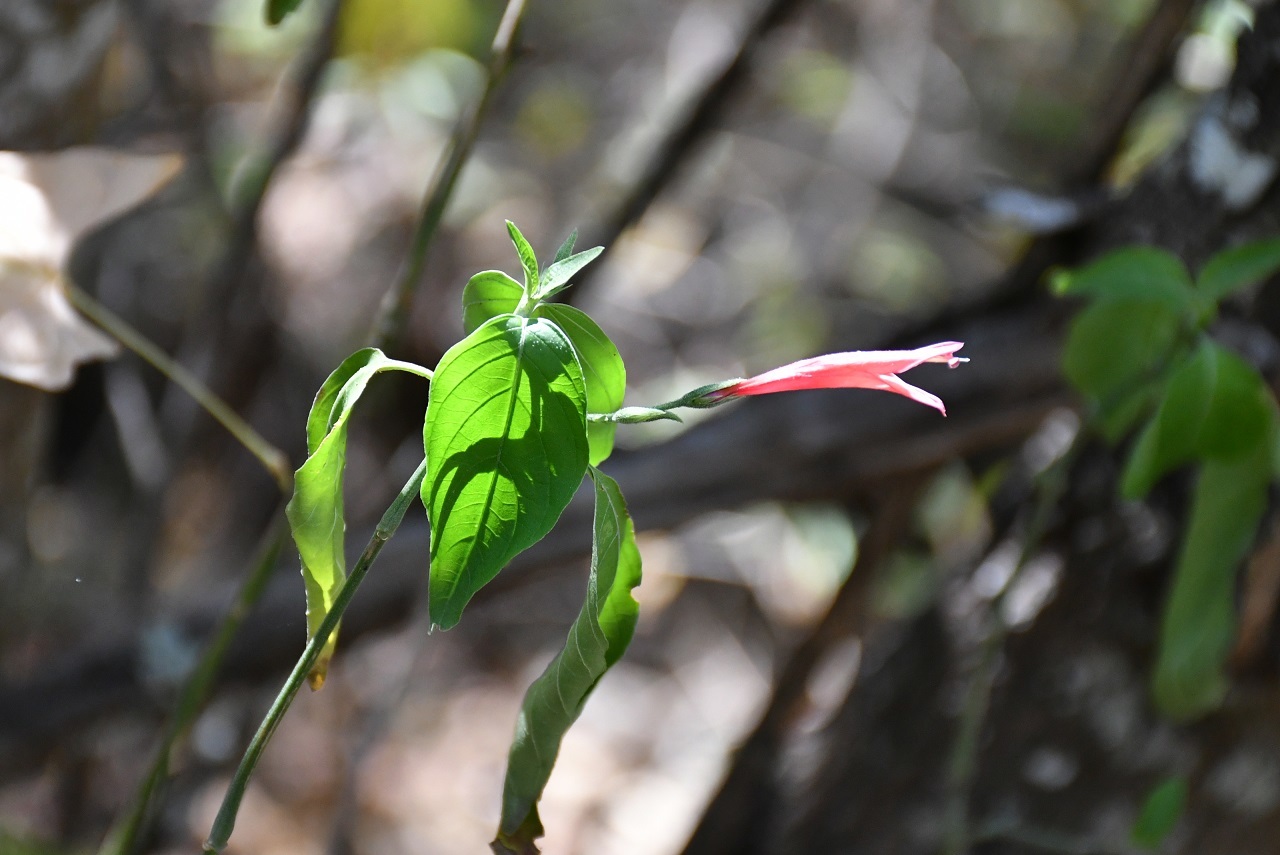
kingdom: Plantae
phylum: Tracheophyta
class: Magnoliopsida
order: Lamiales
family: Acanthaceae
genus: Dicliptera
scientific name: Dicliptera sciadephora
